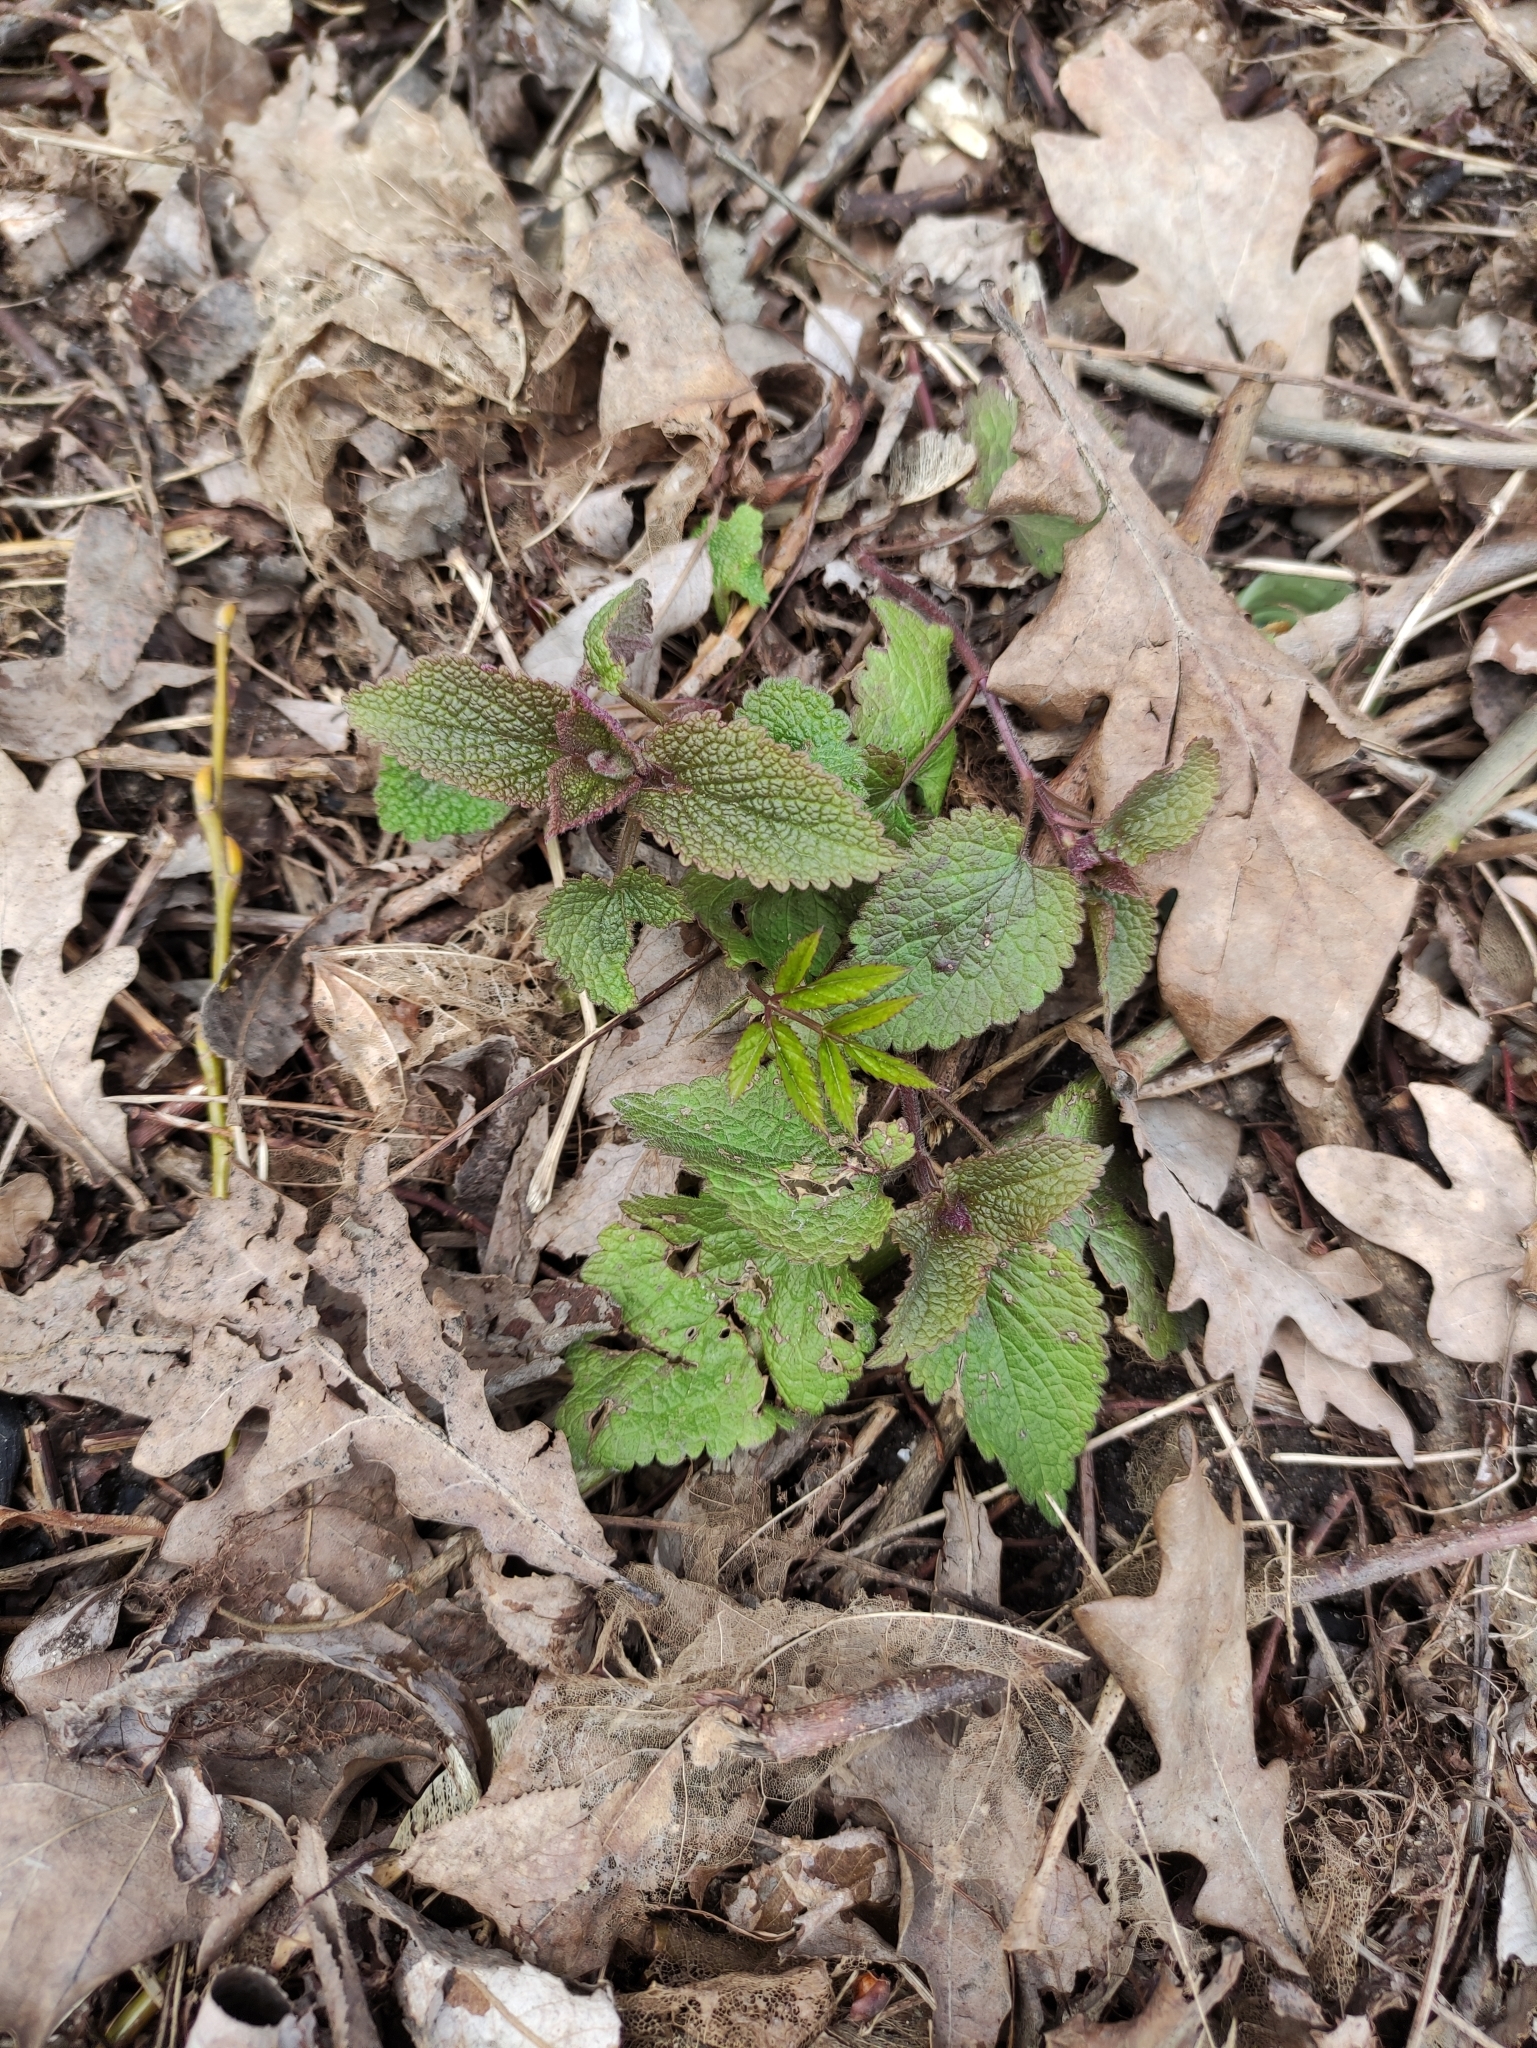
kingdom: Plantae
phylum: Tracheophyta
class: Magnoliopsida
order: Lamiales
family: Lamiaceae
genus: Lamium
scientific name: Lamium album
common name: White dead-nettle
